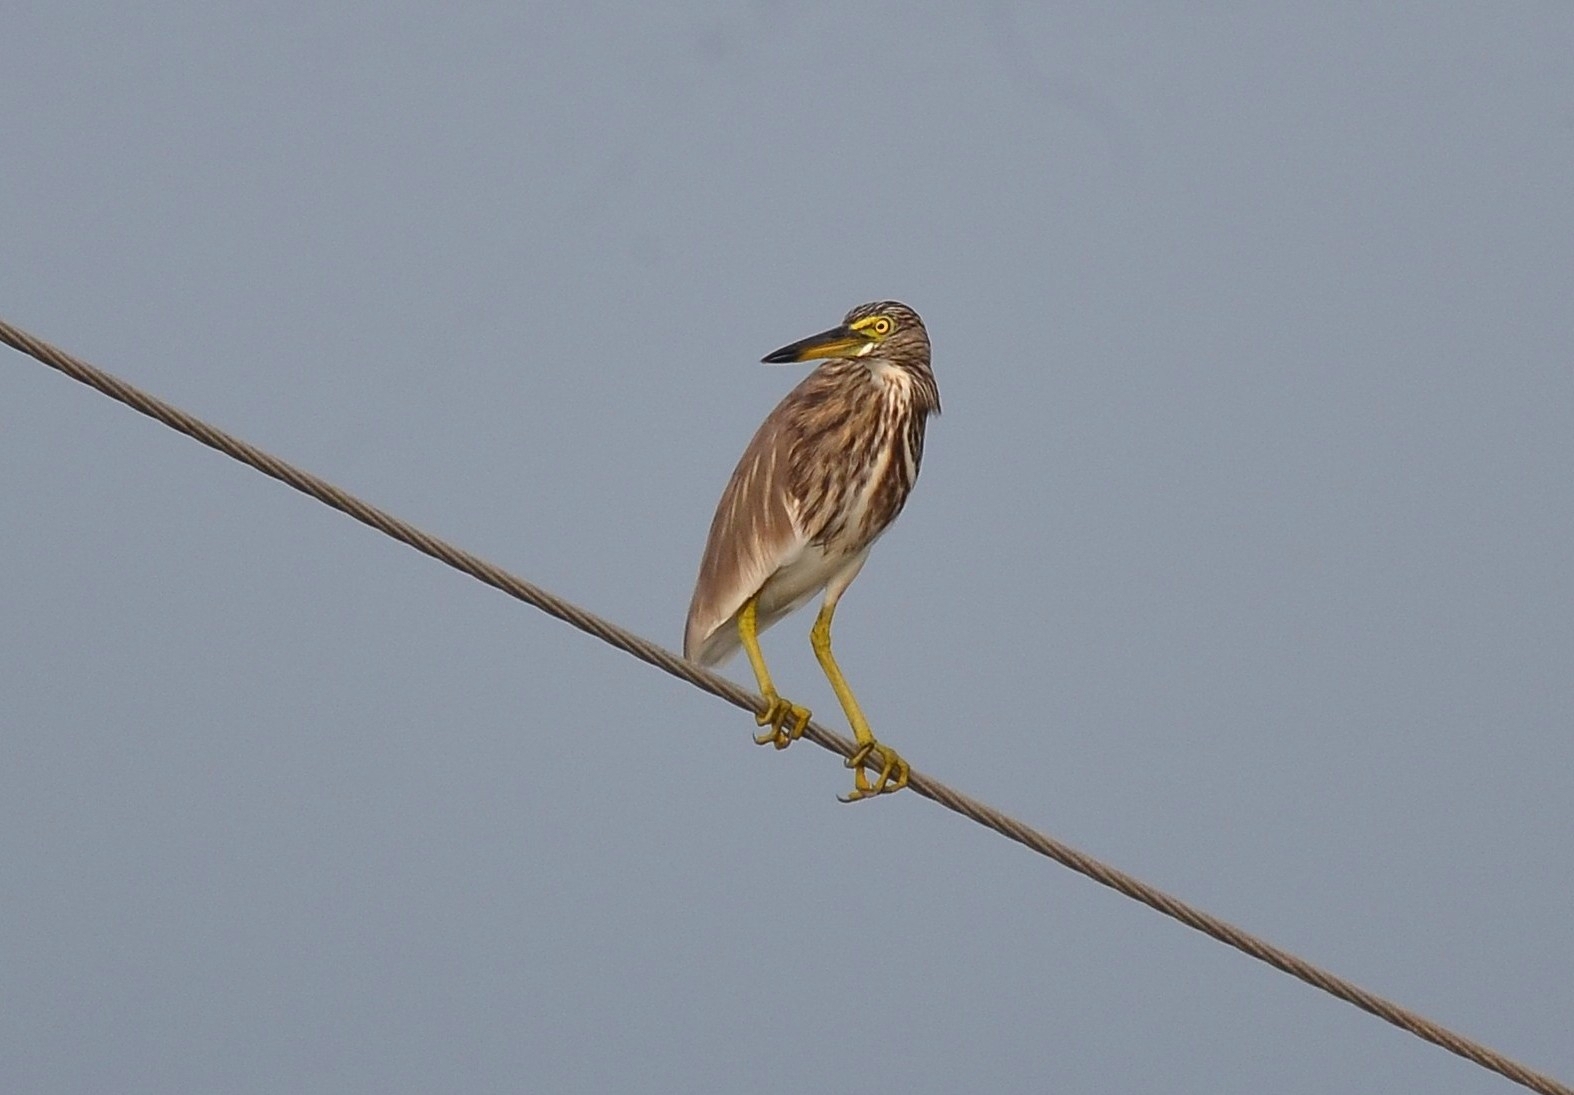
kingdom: Animalia
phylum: Chordata
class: Aves
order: Pelecaniformes
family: Ardeidae
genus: Ardeola
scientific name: Ardeola grayii
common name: Indian pond heron
